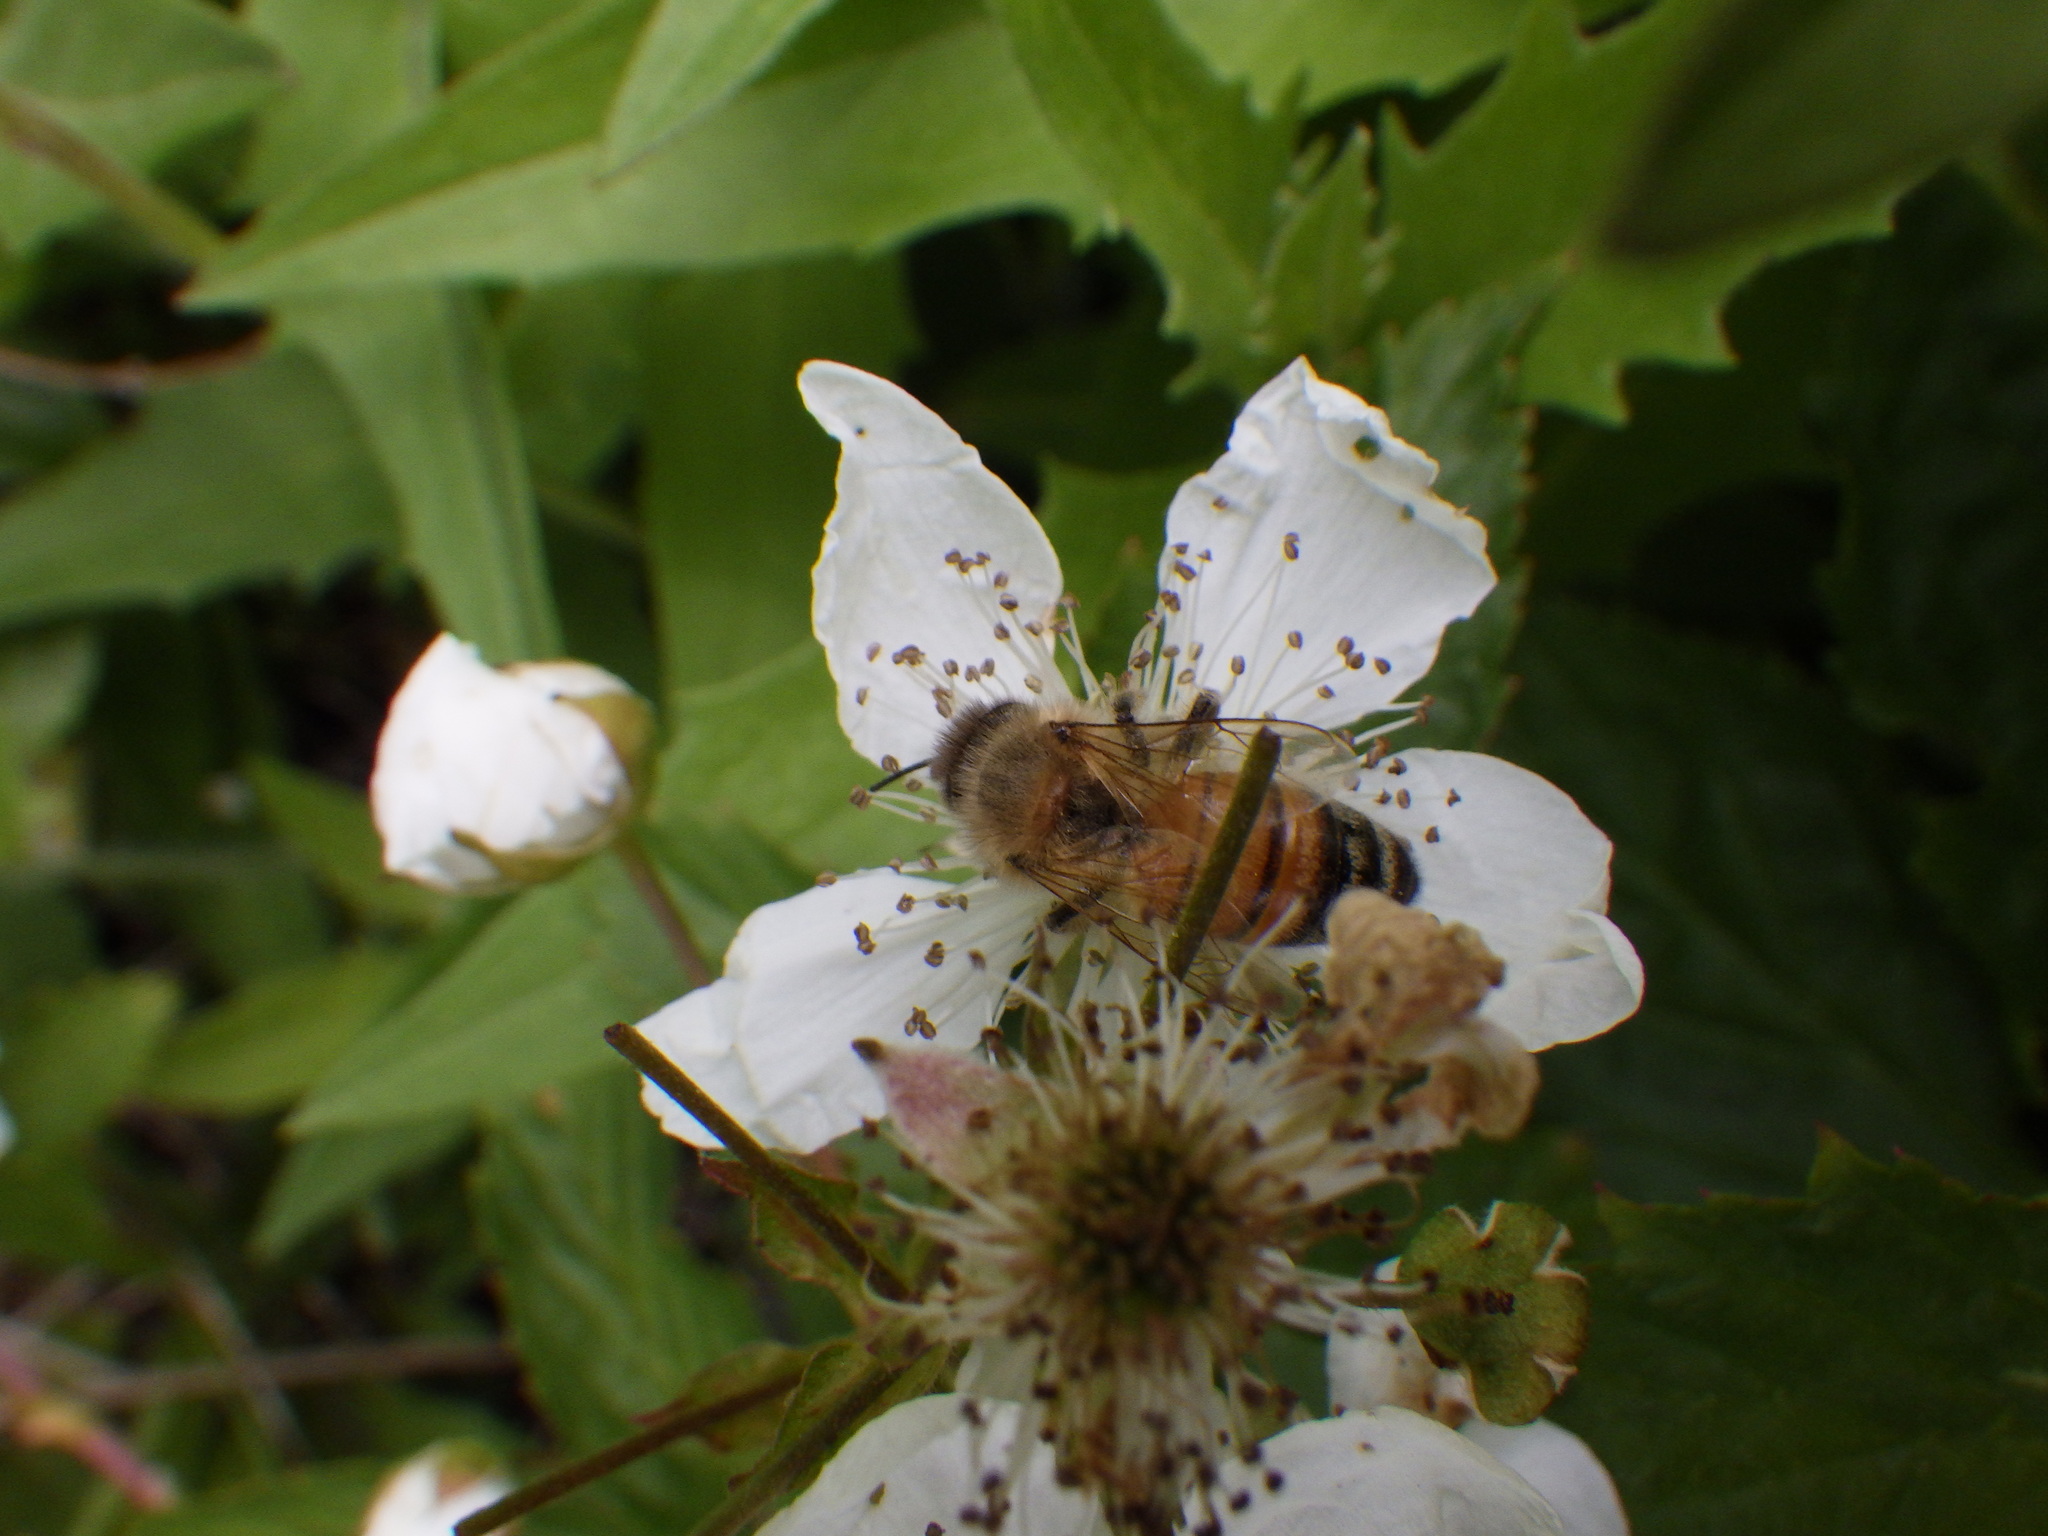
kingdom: Animalia
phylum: Arthropoda
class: Insecta
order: Hymenoptera
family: Apidae
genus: Apis
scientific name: Apis mellifera
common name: Honey bee
